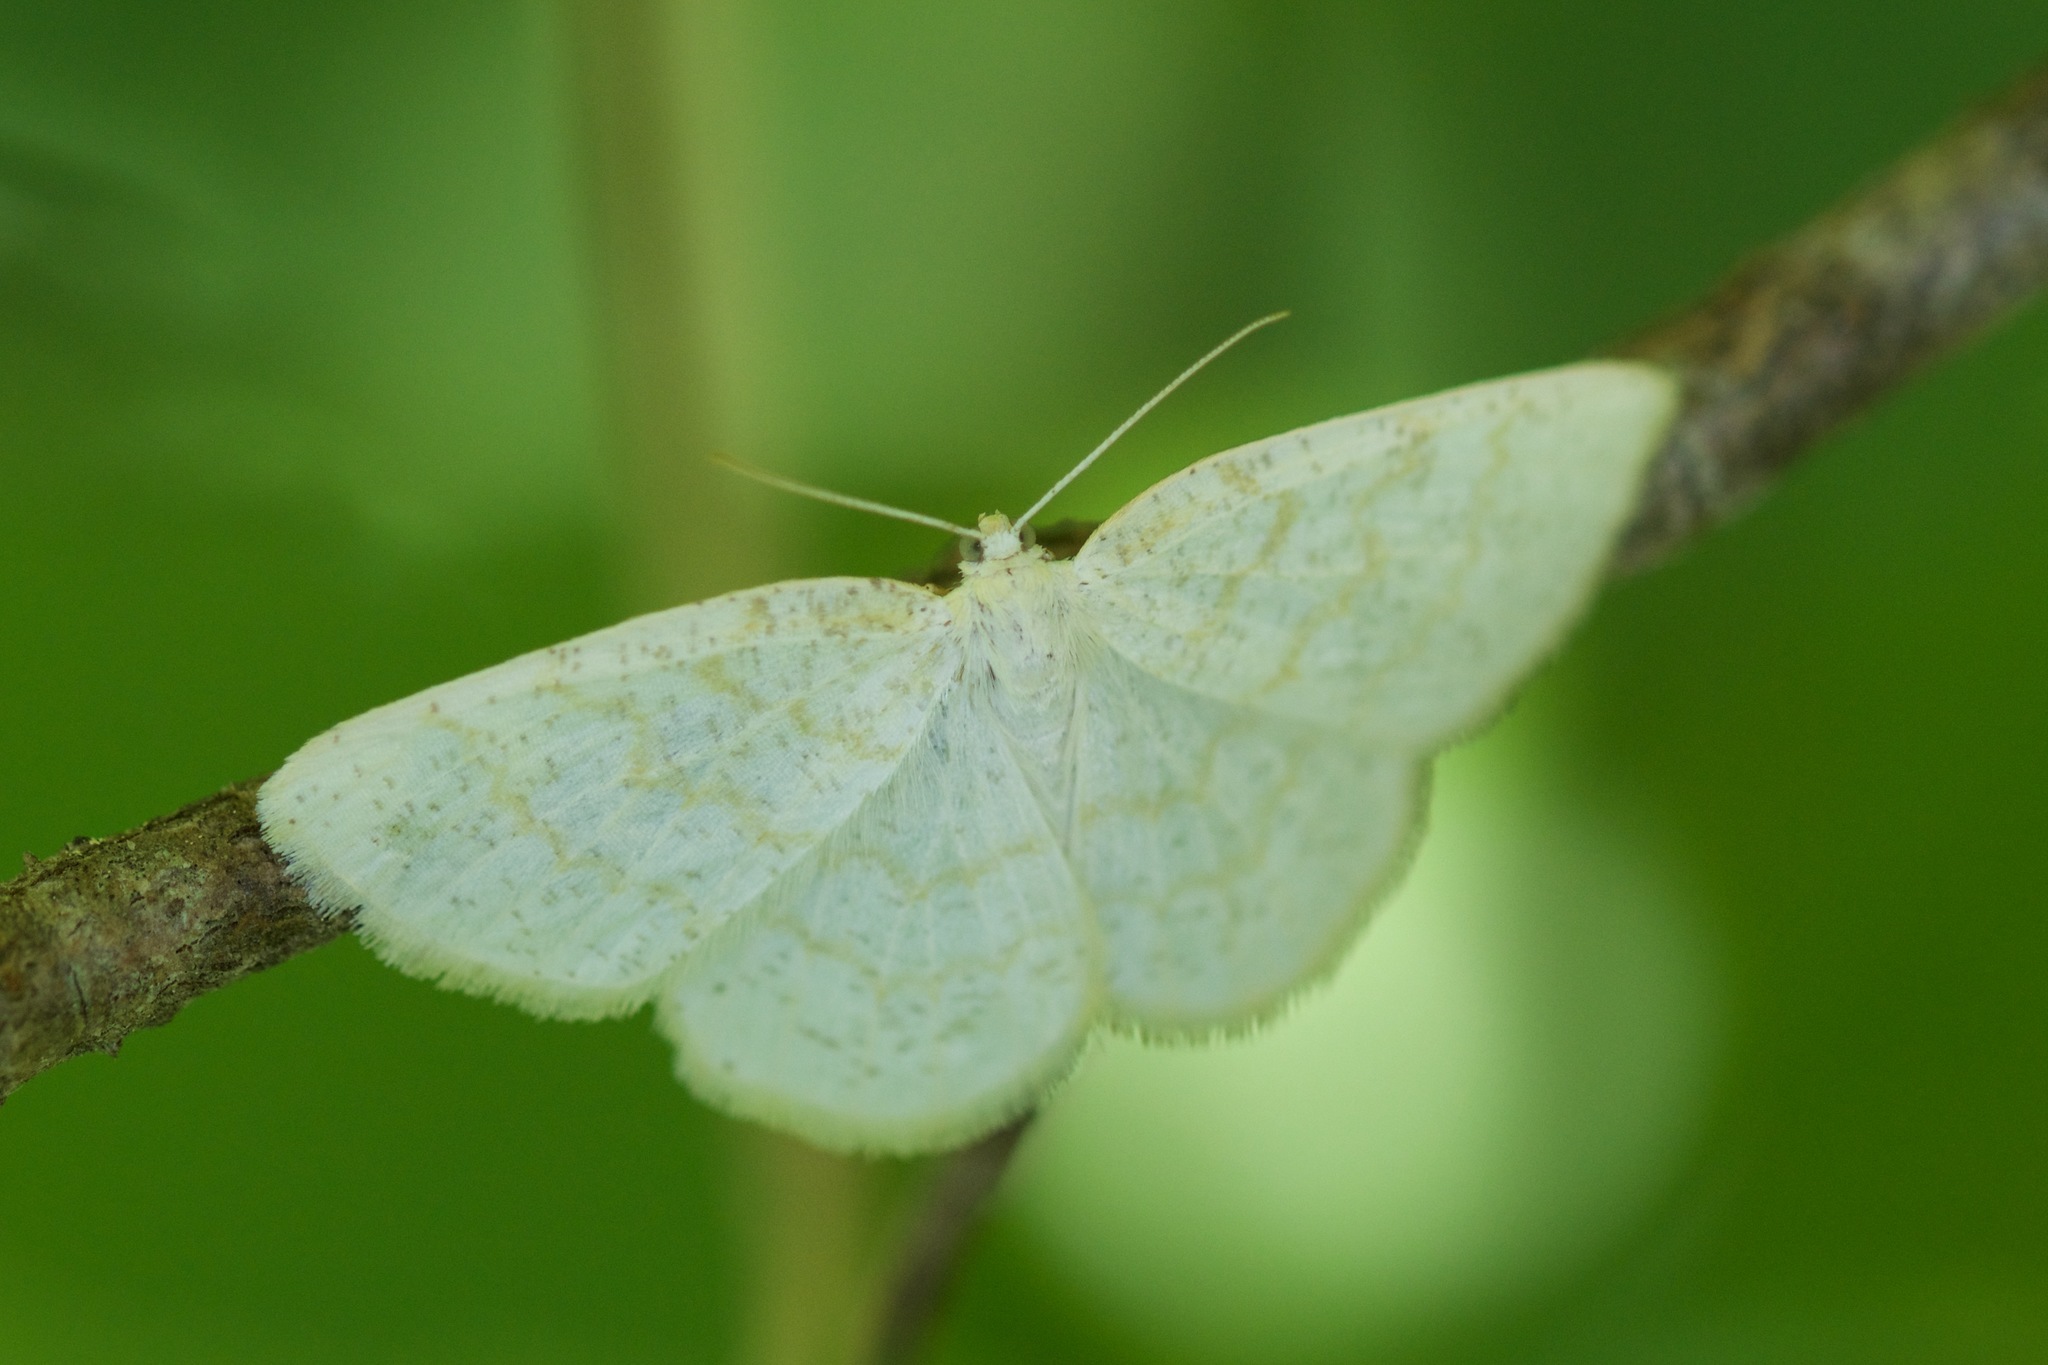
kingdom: Animalia
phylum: Arthropoda
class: Insecta
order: Lepidoptera
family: Geometridae
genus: Cabera
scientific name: Cabera erythemaria
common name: Yellow-dusted cream moth
